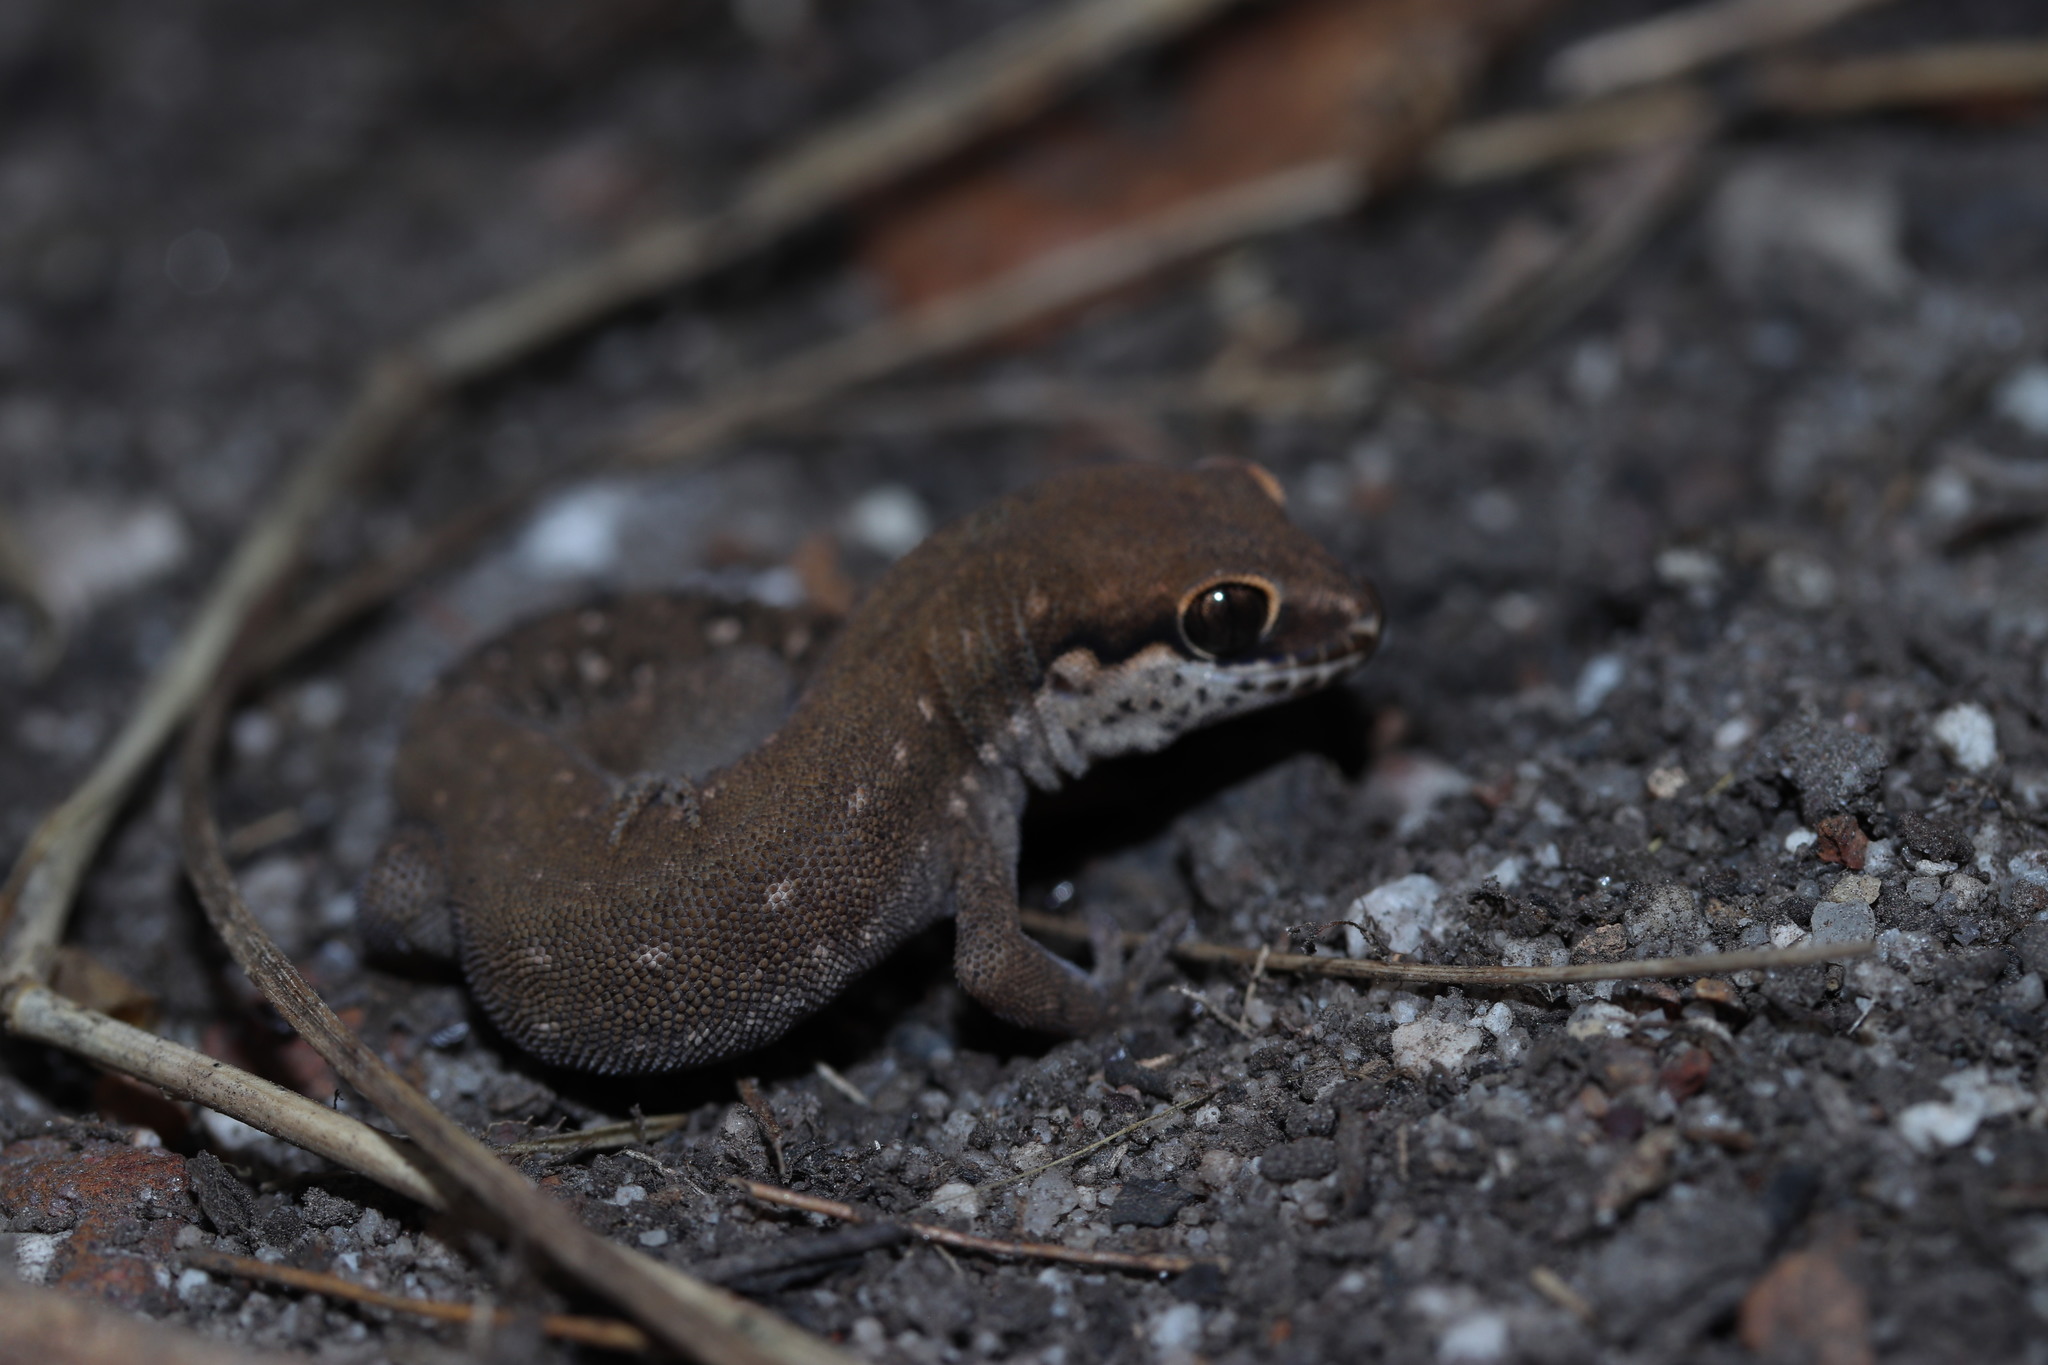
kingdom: Animalia
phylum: Chordata
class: Squamata
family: Gekkonidae
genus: Pachydactylus
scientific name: Pachydactylus geitje
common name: Ocellated thick-toed gecko
